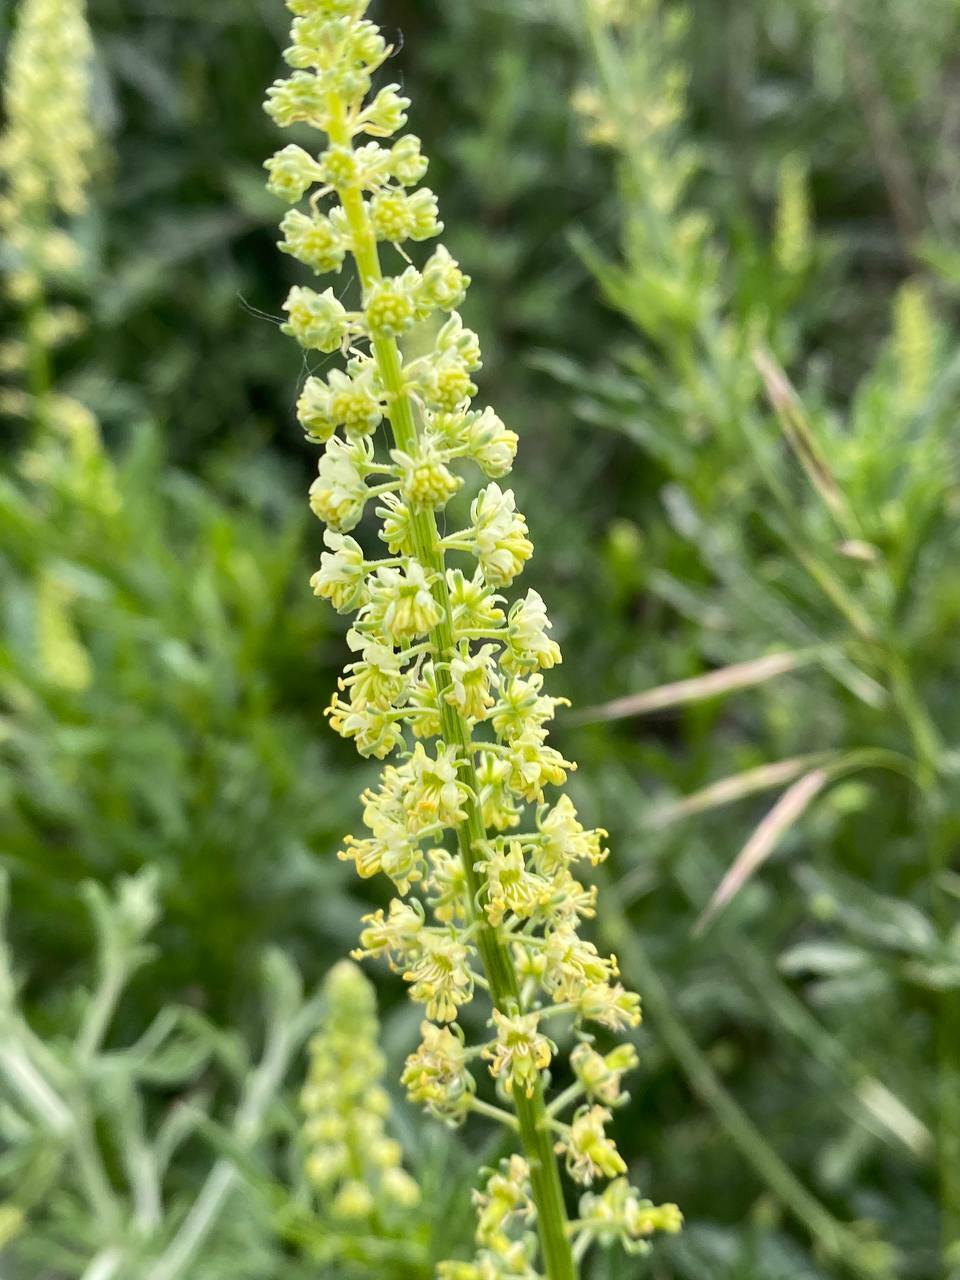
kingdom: Plantae
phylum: Tracheophyta
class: Magnoliopsida
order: Brassicales
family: Resedaceae
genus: Reseda
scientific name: Reseda lutea
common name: Wild mignonette
